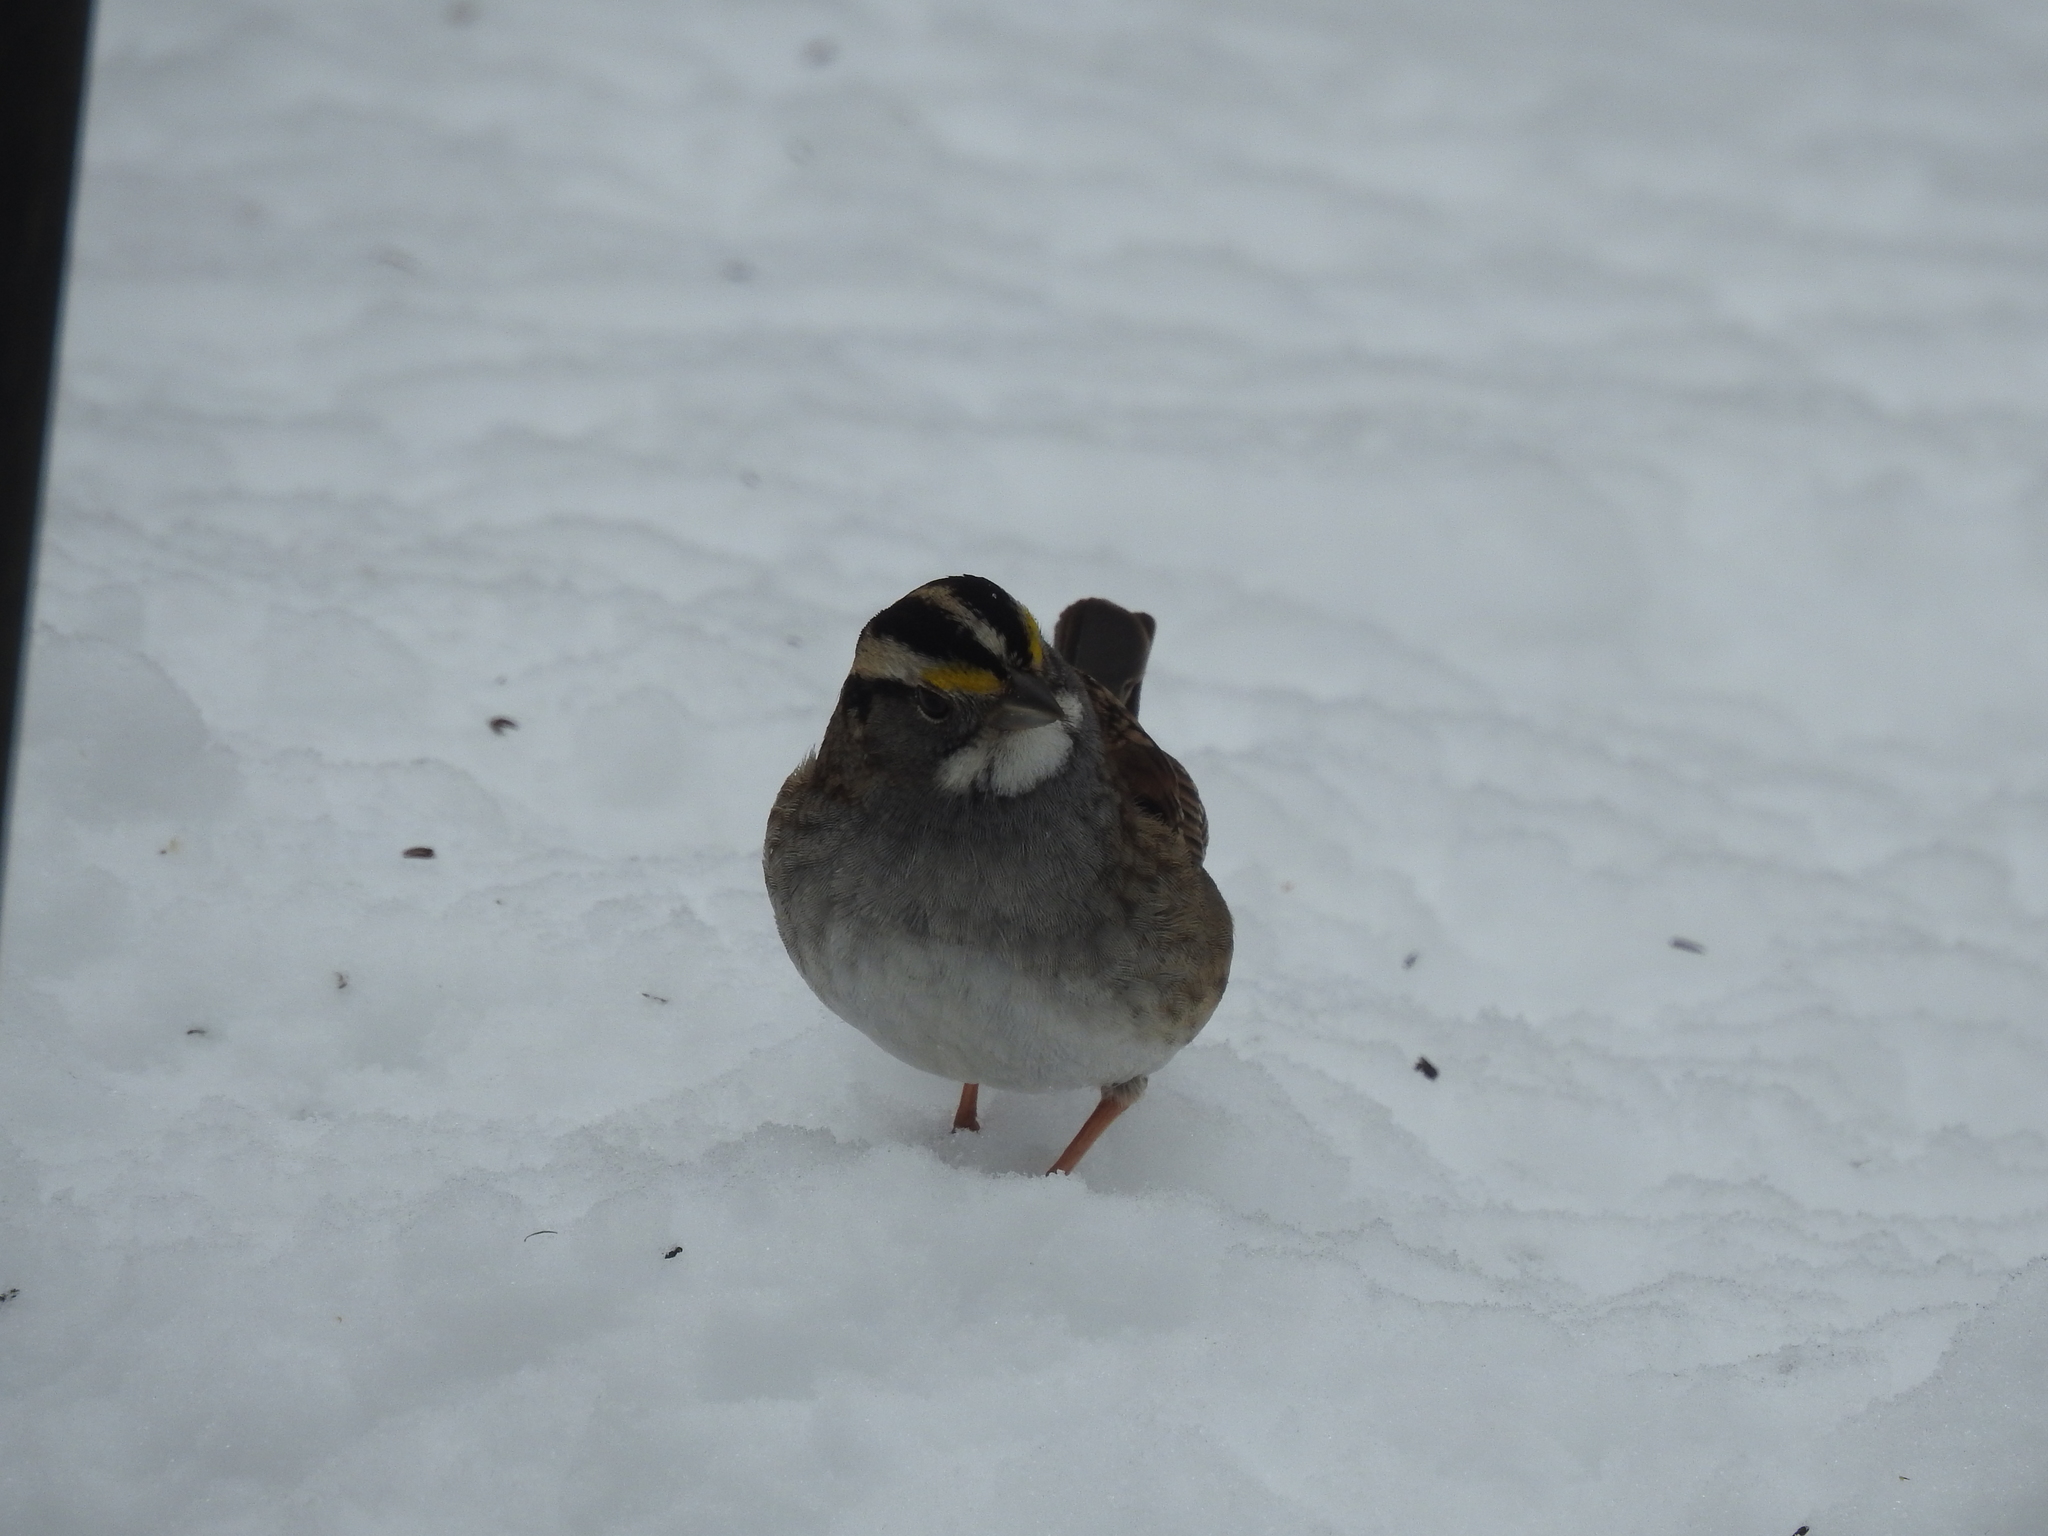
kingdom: Animalia
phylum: Chordata
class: Aves
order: Passeriformes
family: Passerellidae
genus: Zonotrichia
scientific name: Zonotrichia albicollis
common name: White-throated sparrow
